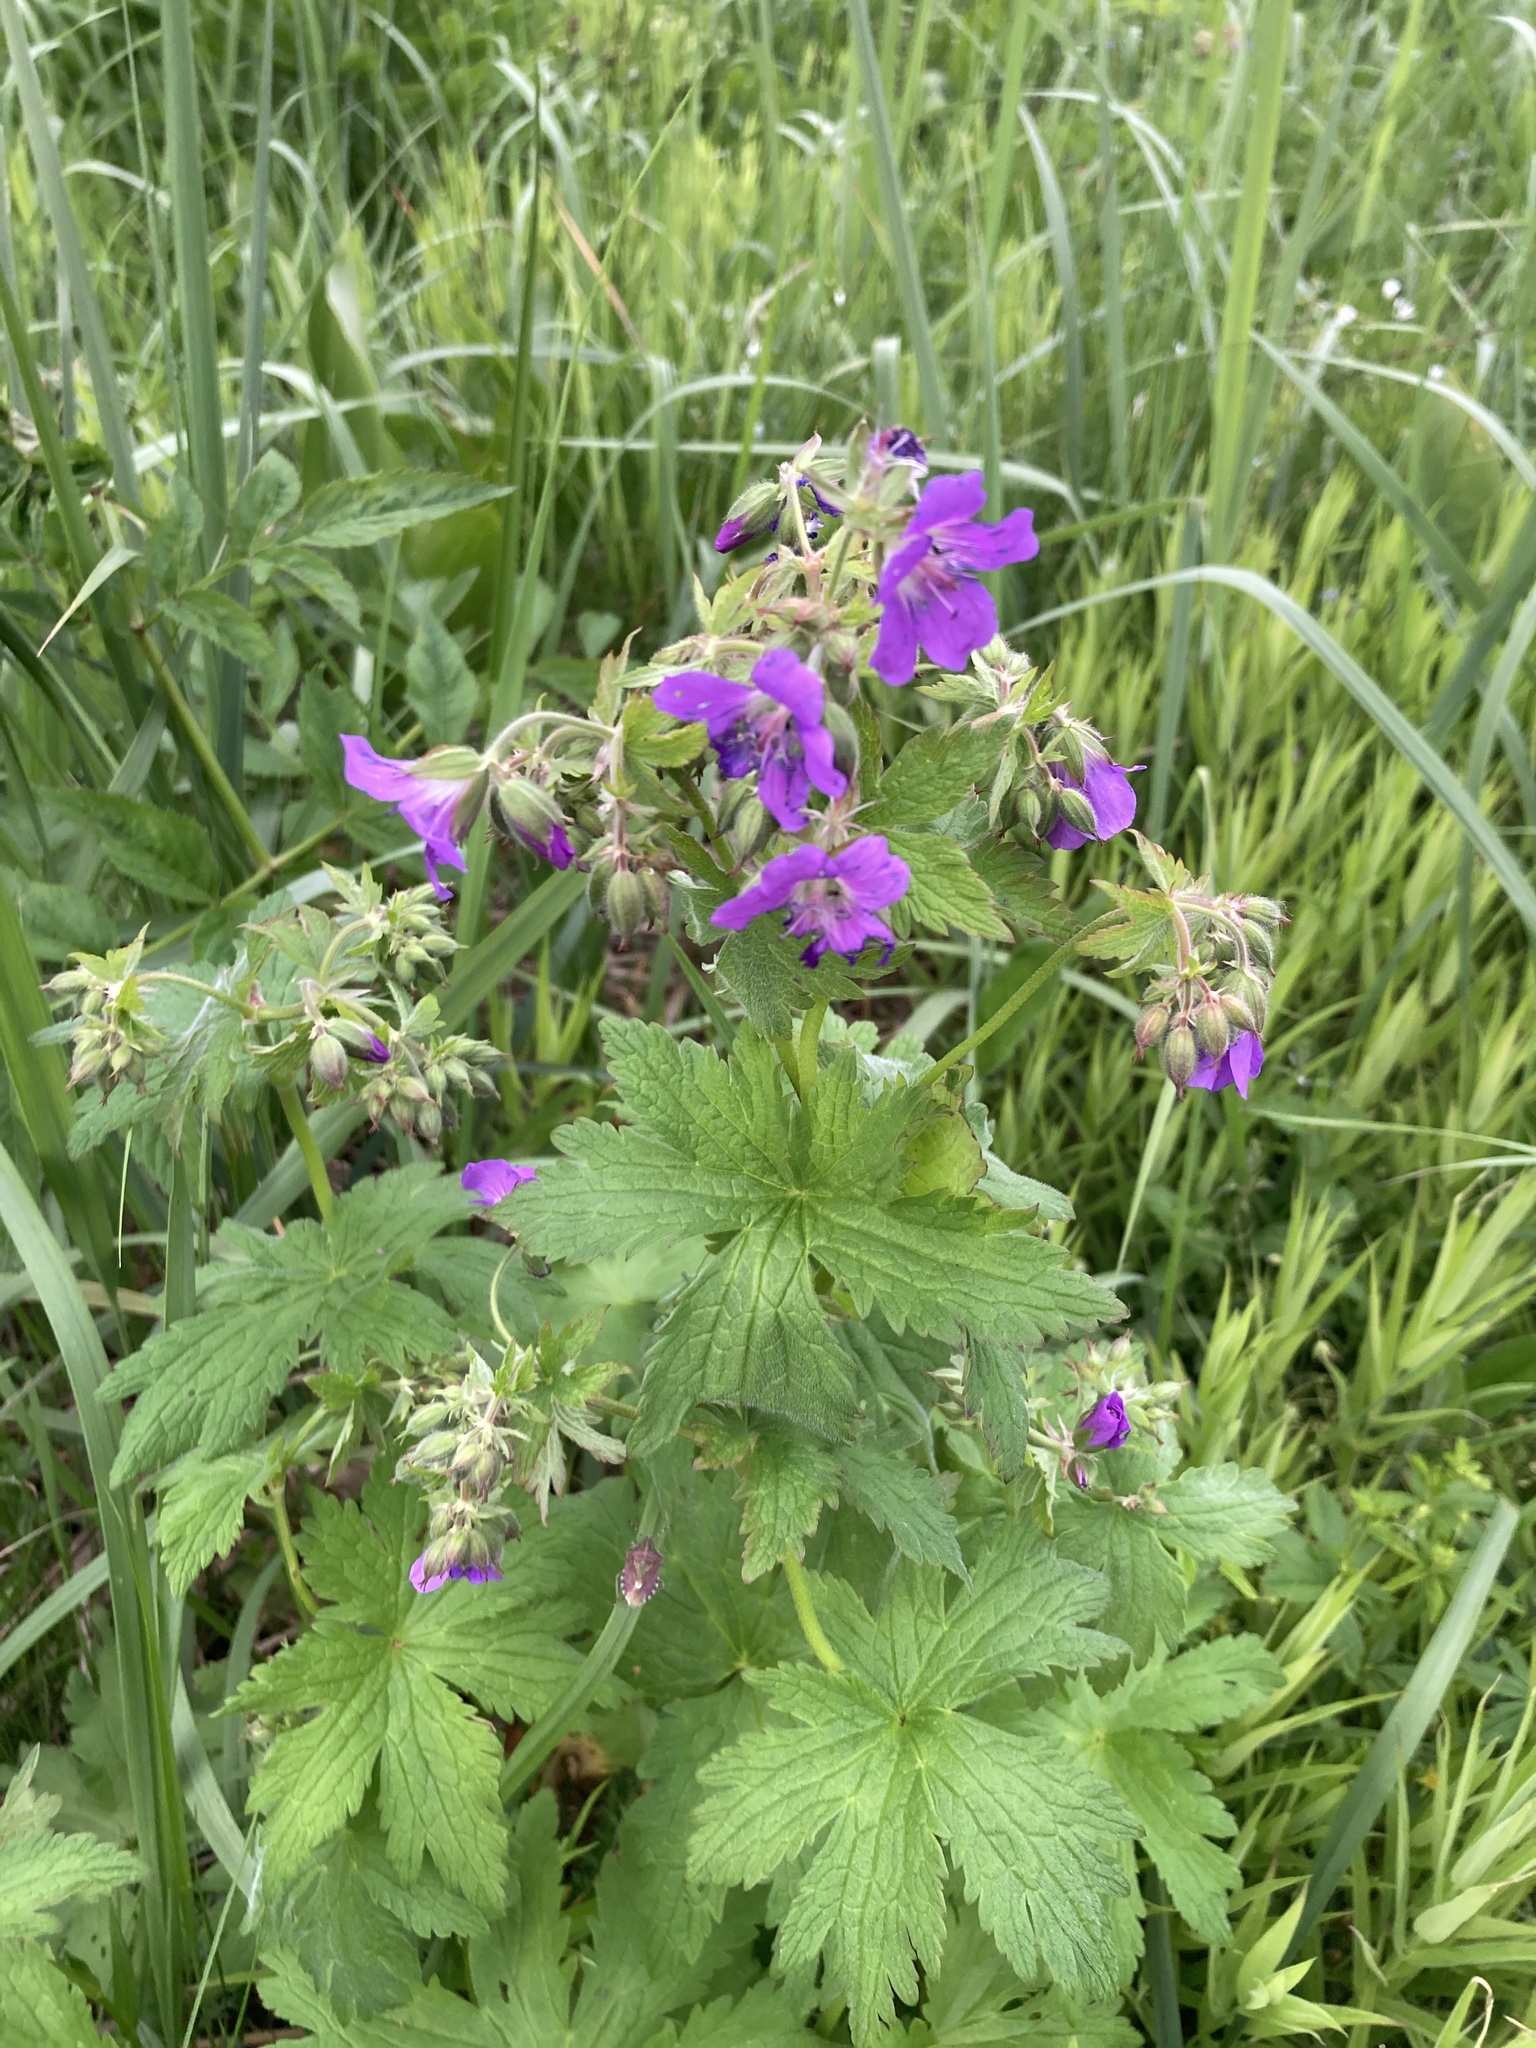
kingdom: Plantae
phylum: Tracheophyta
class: Magnoliopsida
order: Geraniales
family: Geraniaceae
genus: Geranium
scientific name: Geranium sylvaticum
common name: Wood crane's-bill
